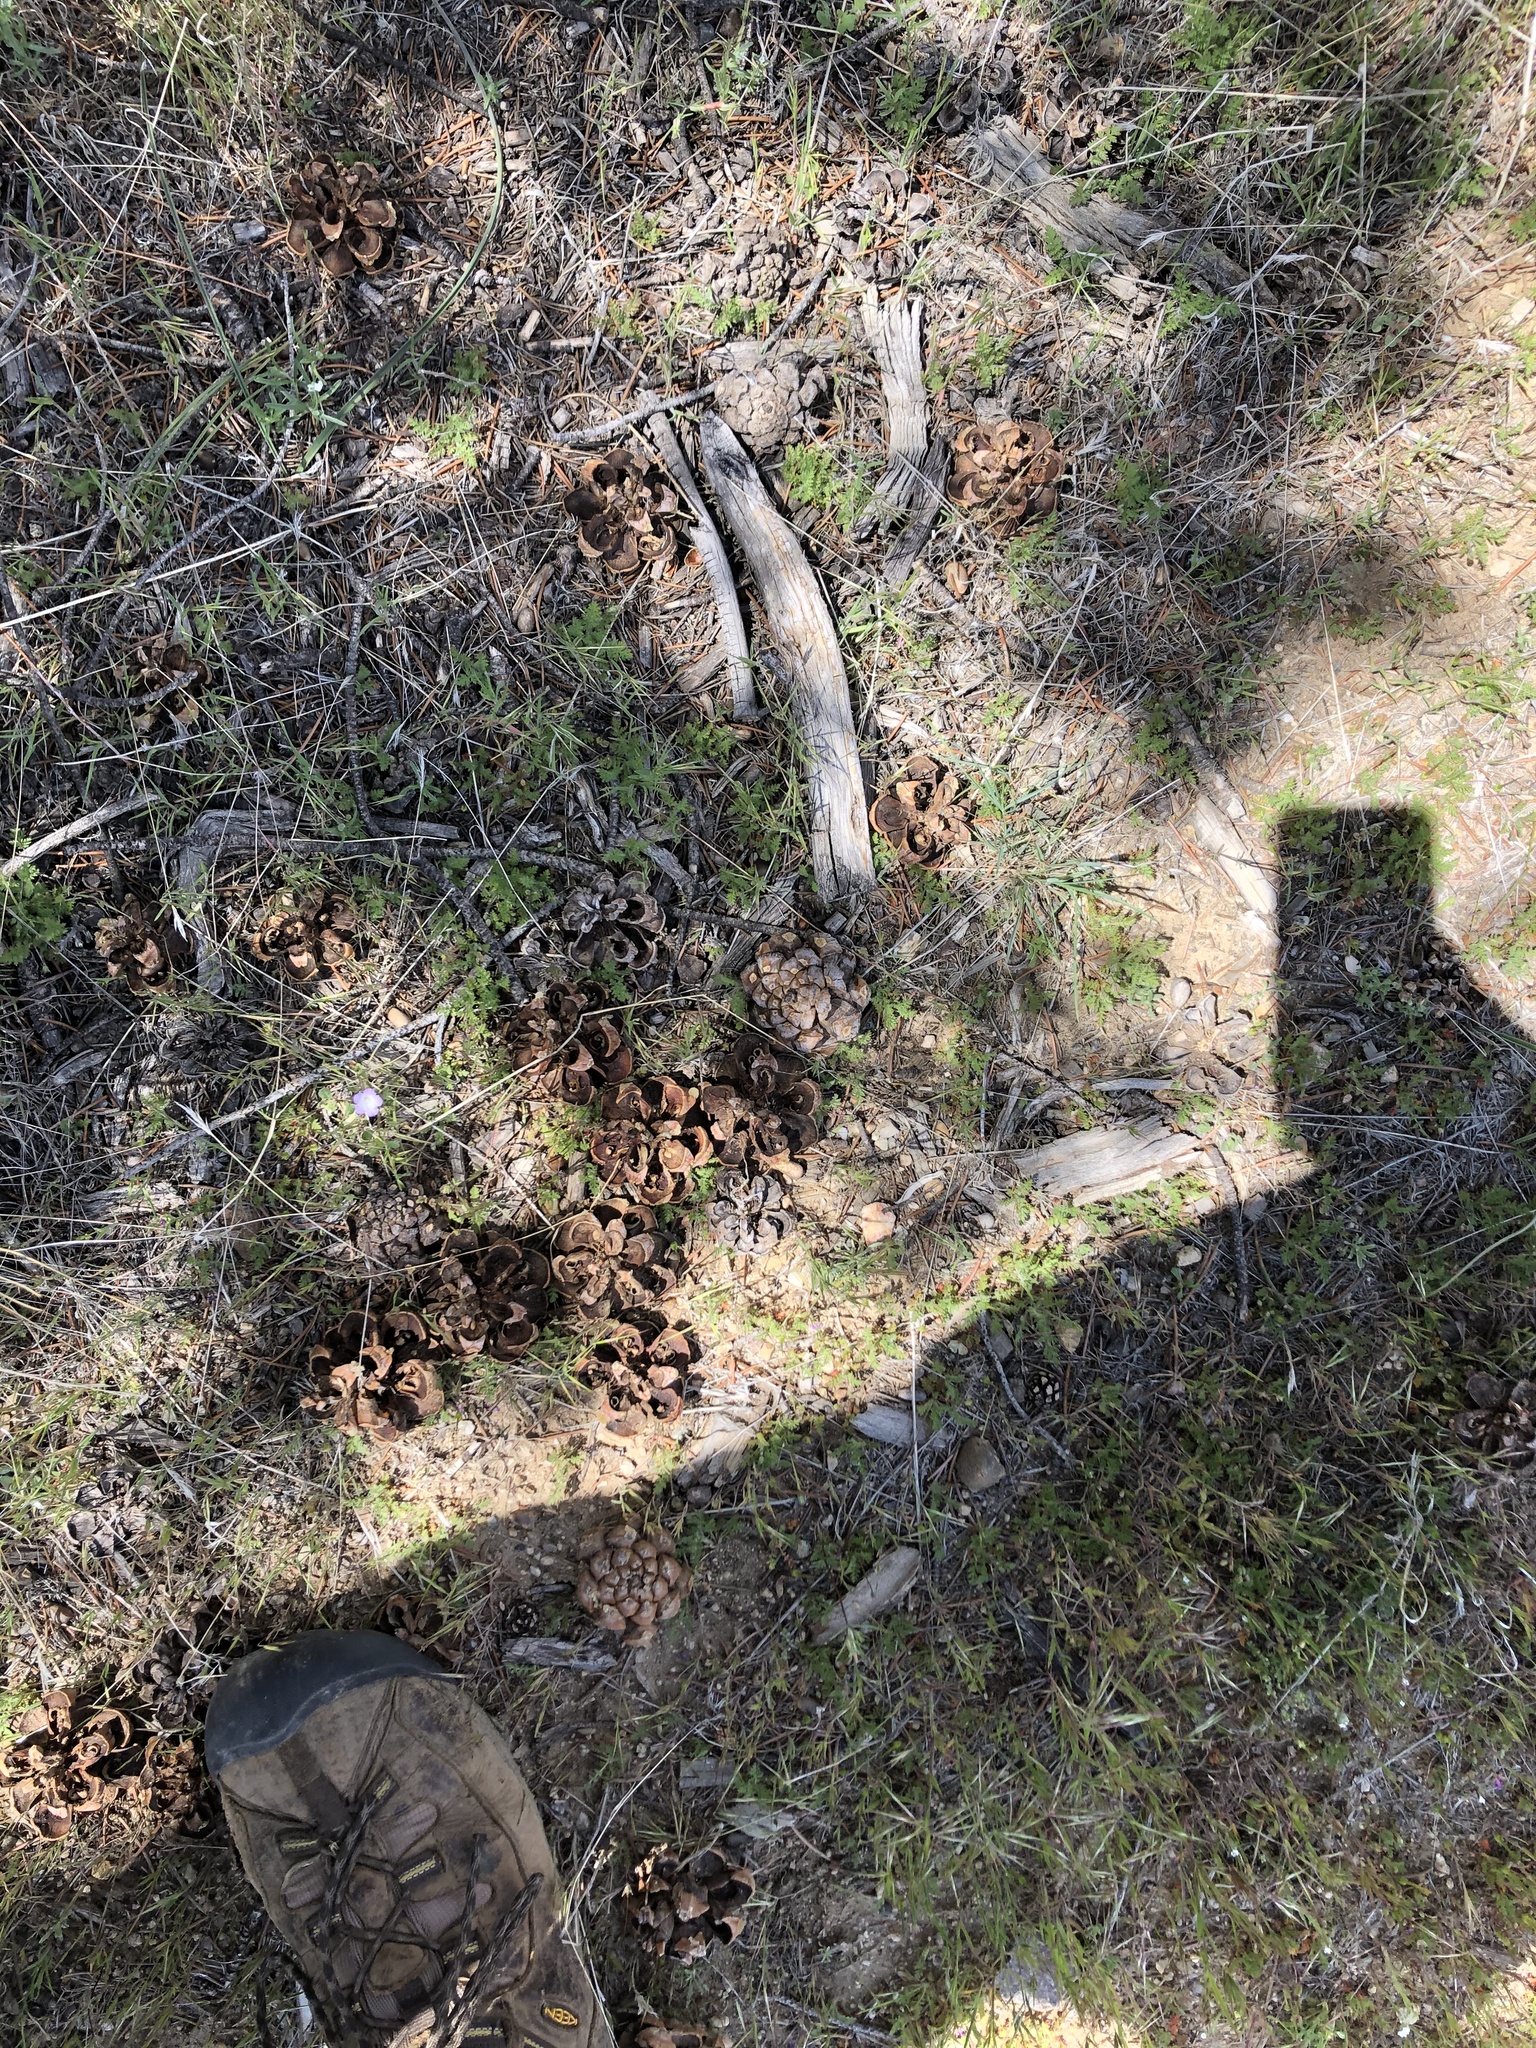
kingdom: Plantae
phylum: Tracheophyta
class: Pinopsida
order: Pinales
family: Pinaceae
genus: Pinus
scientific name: Pinus monophylla
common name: One-leaved nut pine
